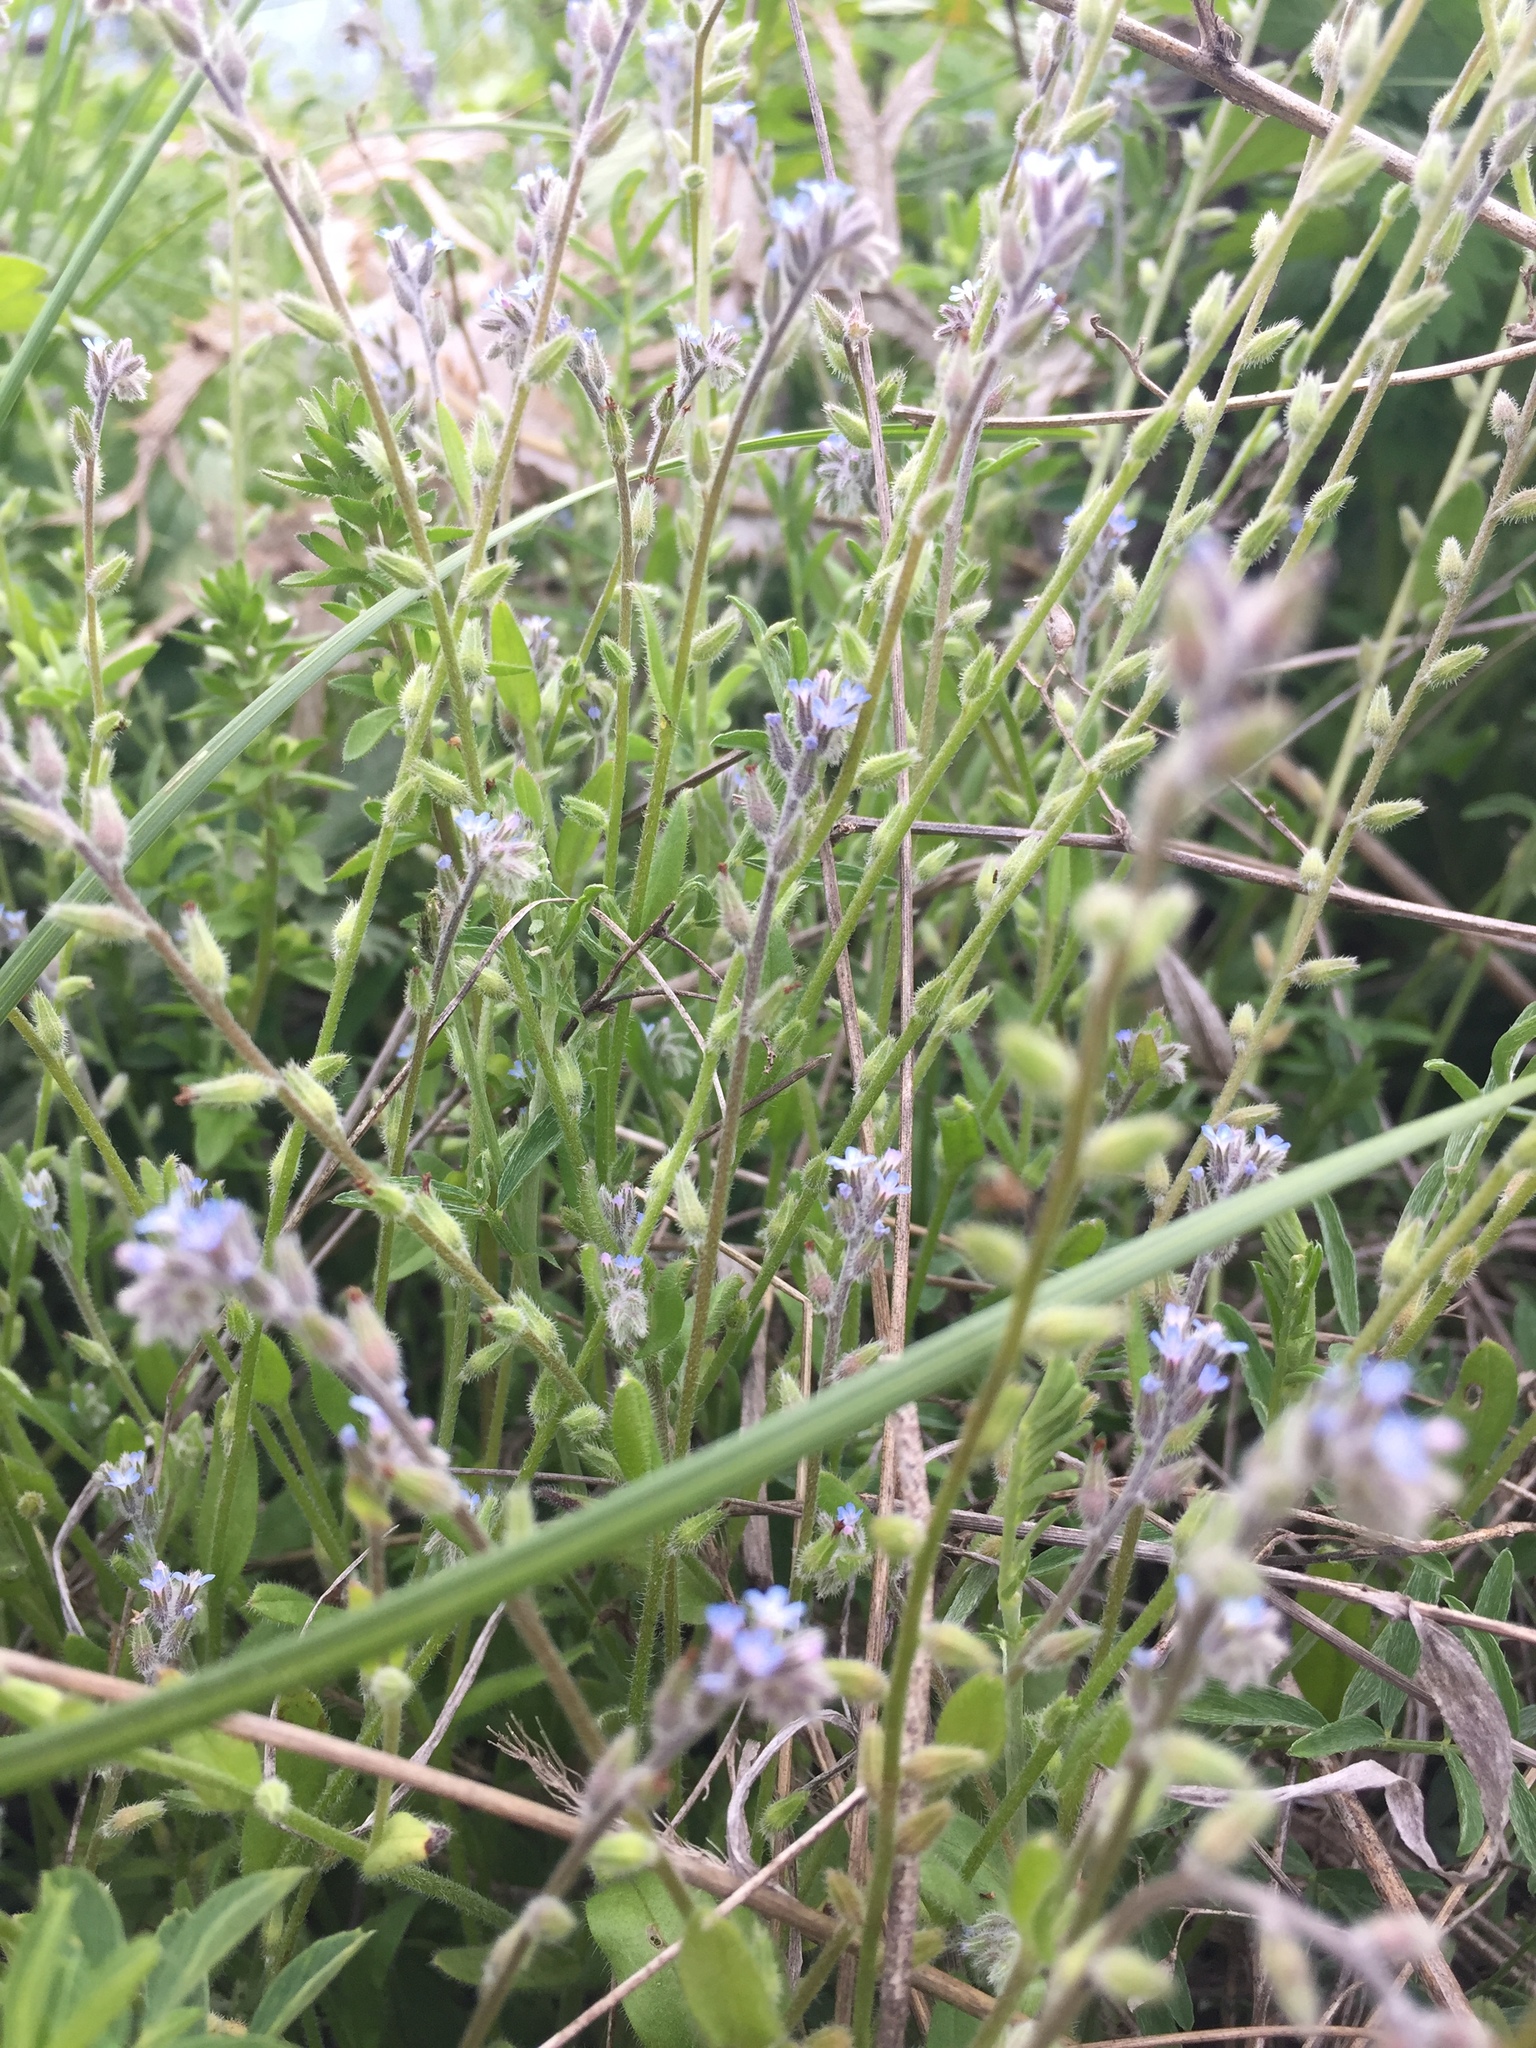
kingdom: Plantae
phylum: Tracheophyta
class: Magnoliopsida
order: Boraginales
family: Boraginaceae
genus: Myosotis
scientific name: Myosotis stricta
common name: Strict forget-me-not
